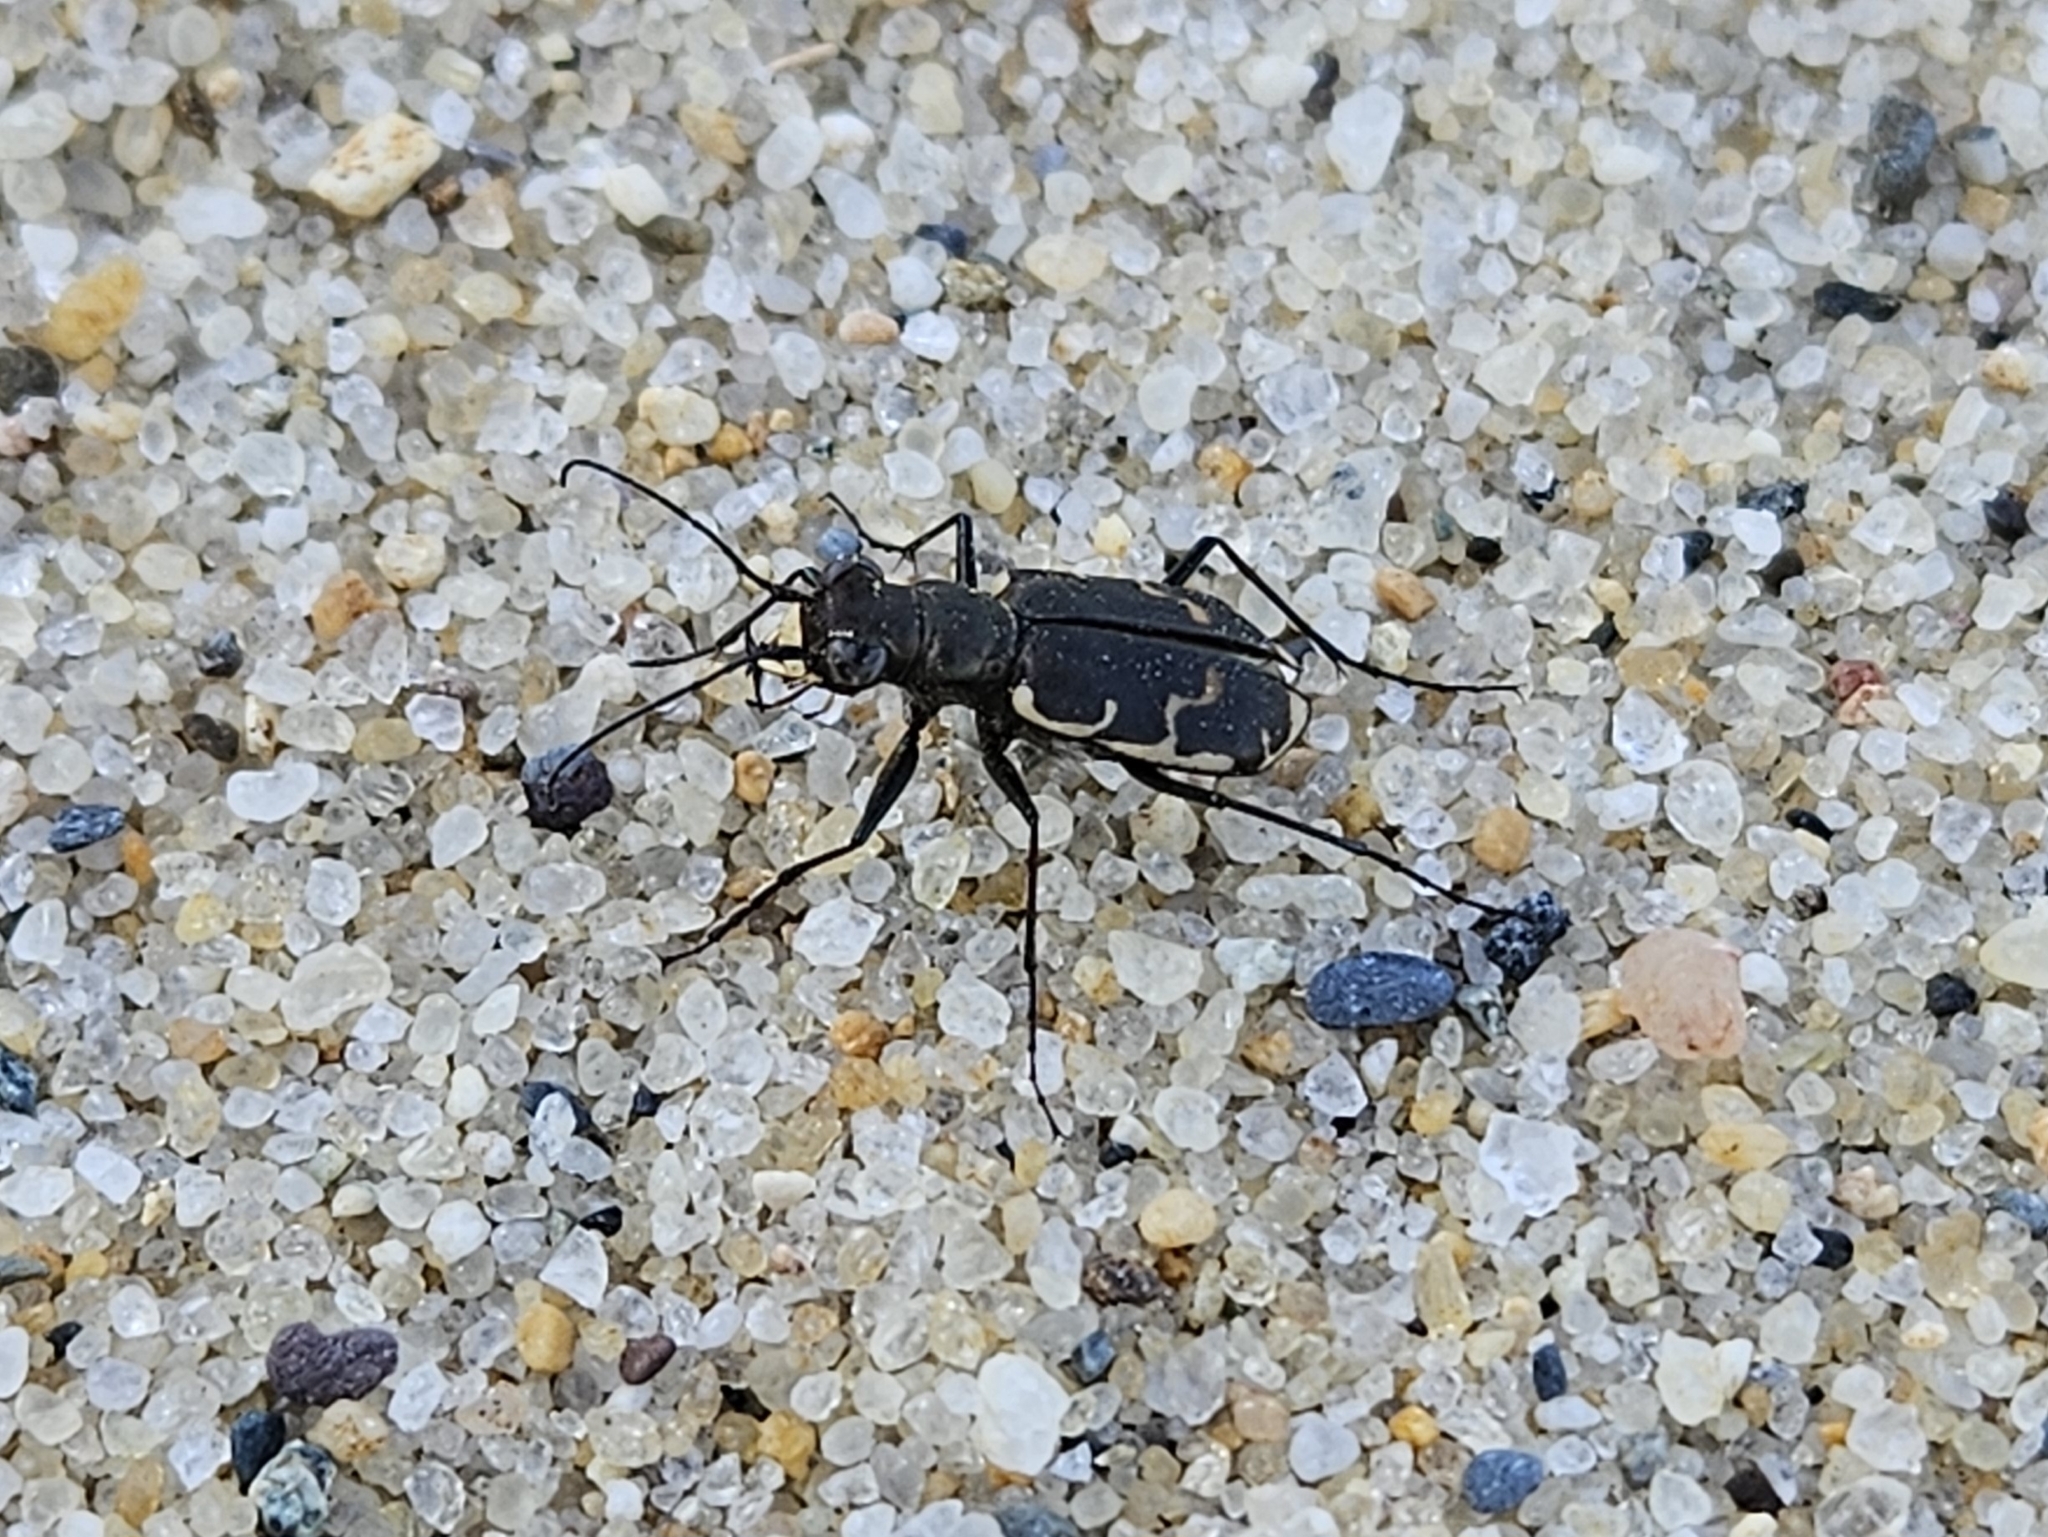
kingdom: Animalia
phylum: Arthropoda
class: Insecta
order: Coleoptera
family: Carabidae
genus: Cicindela
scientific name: Cicindela repanda
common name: Bronzed tiger beetle
